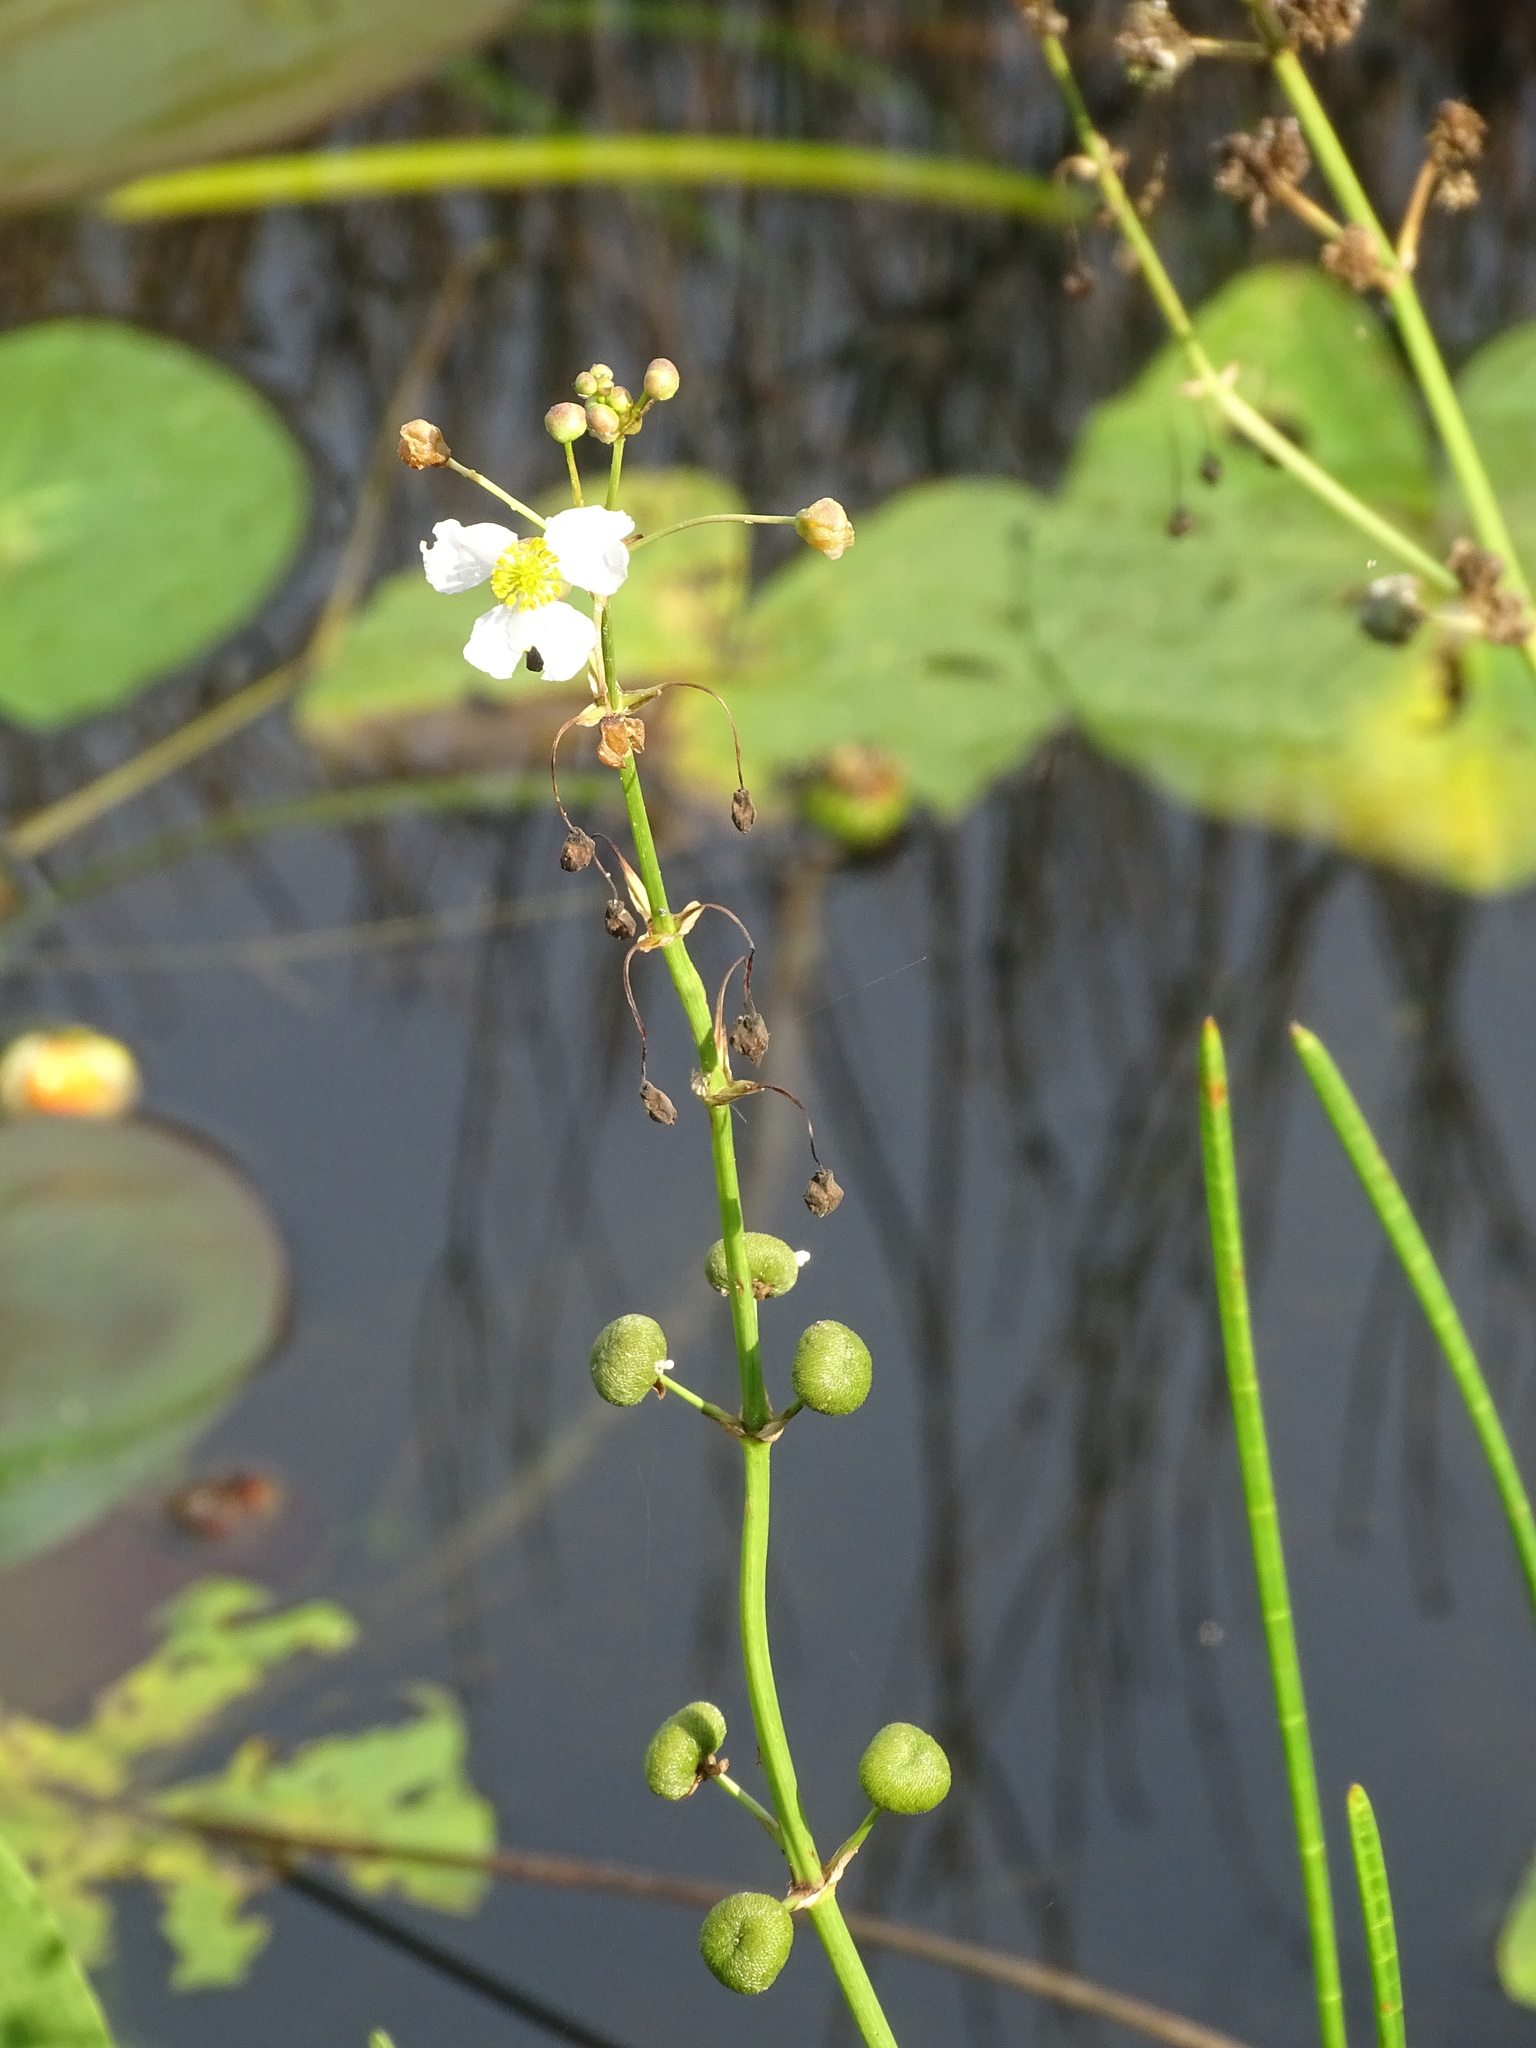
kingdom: Plantae
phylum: Tracheophyta
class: Liliopsida
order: Alismatales
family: Alismataceae
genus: Sagittaria
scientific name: Sagittaria lancifolia
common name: Lance-leaf arrowhead
